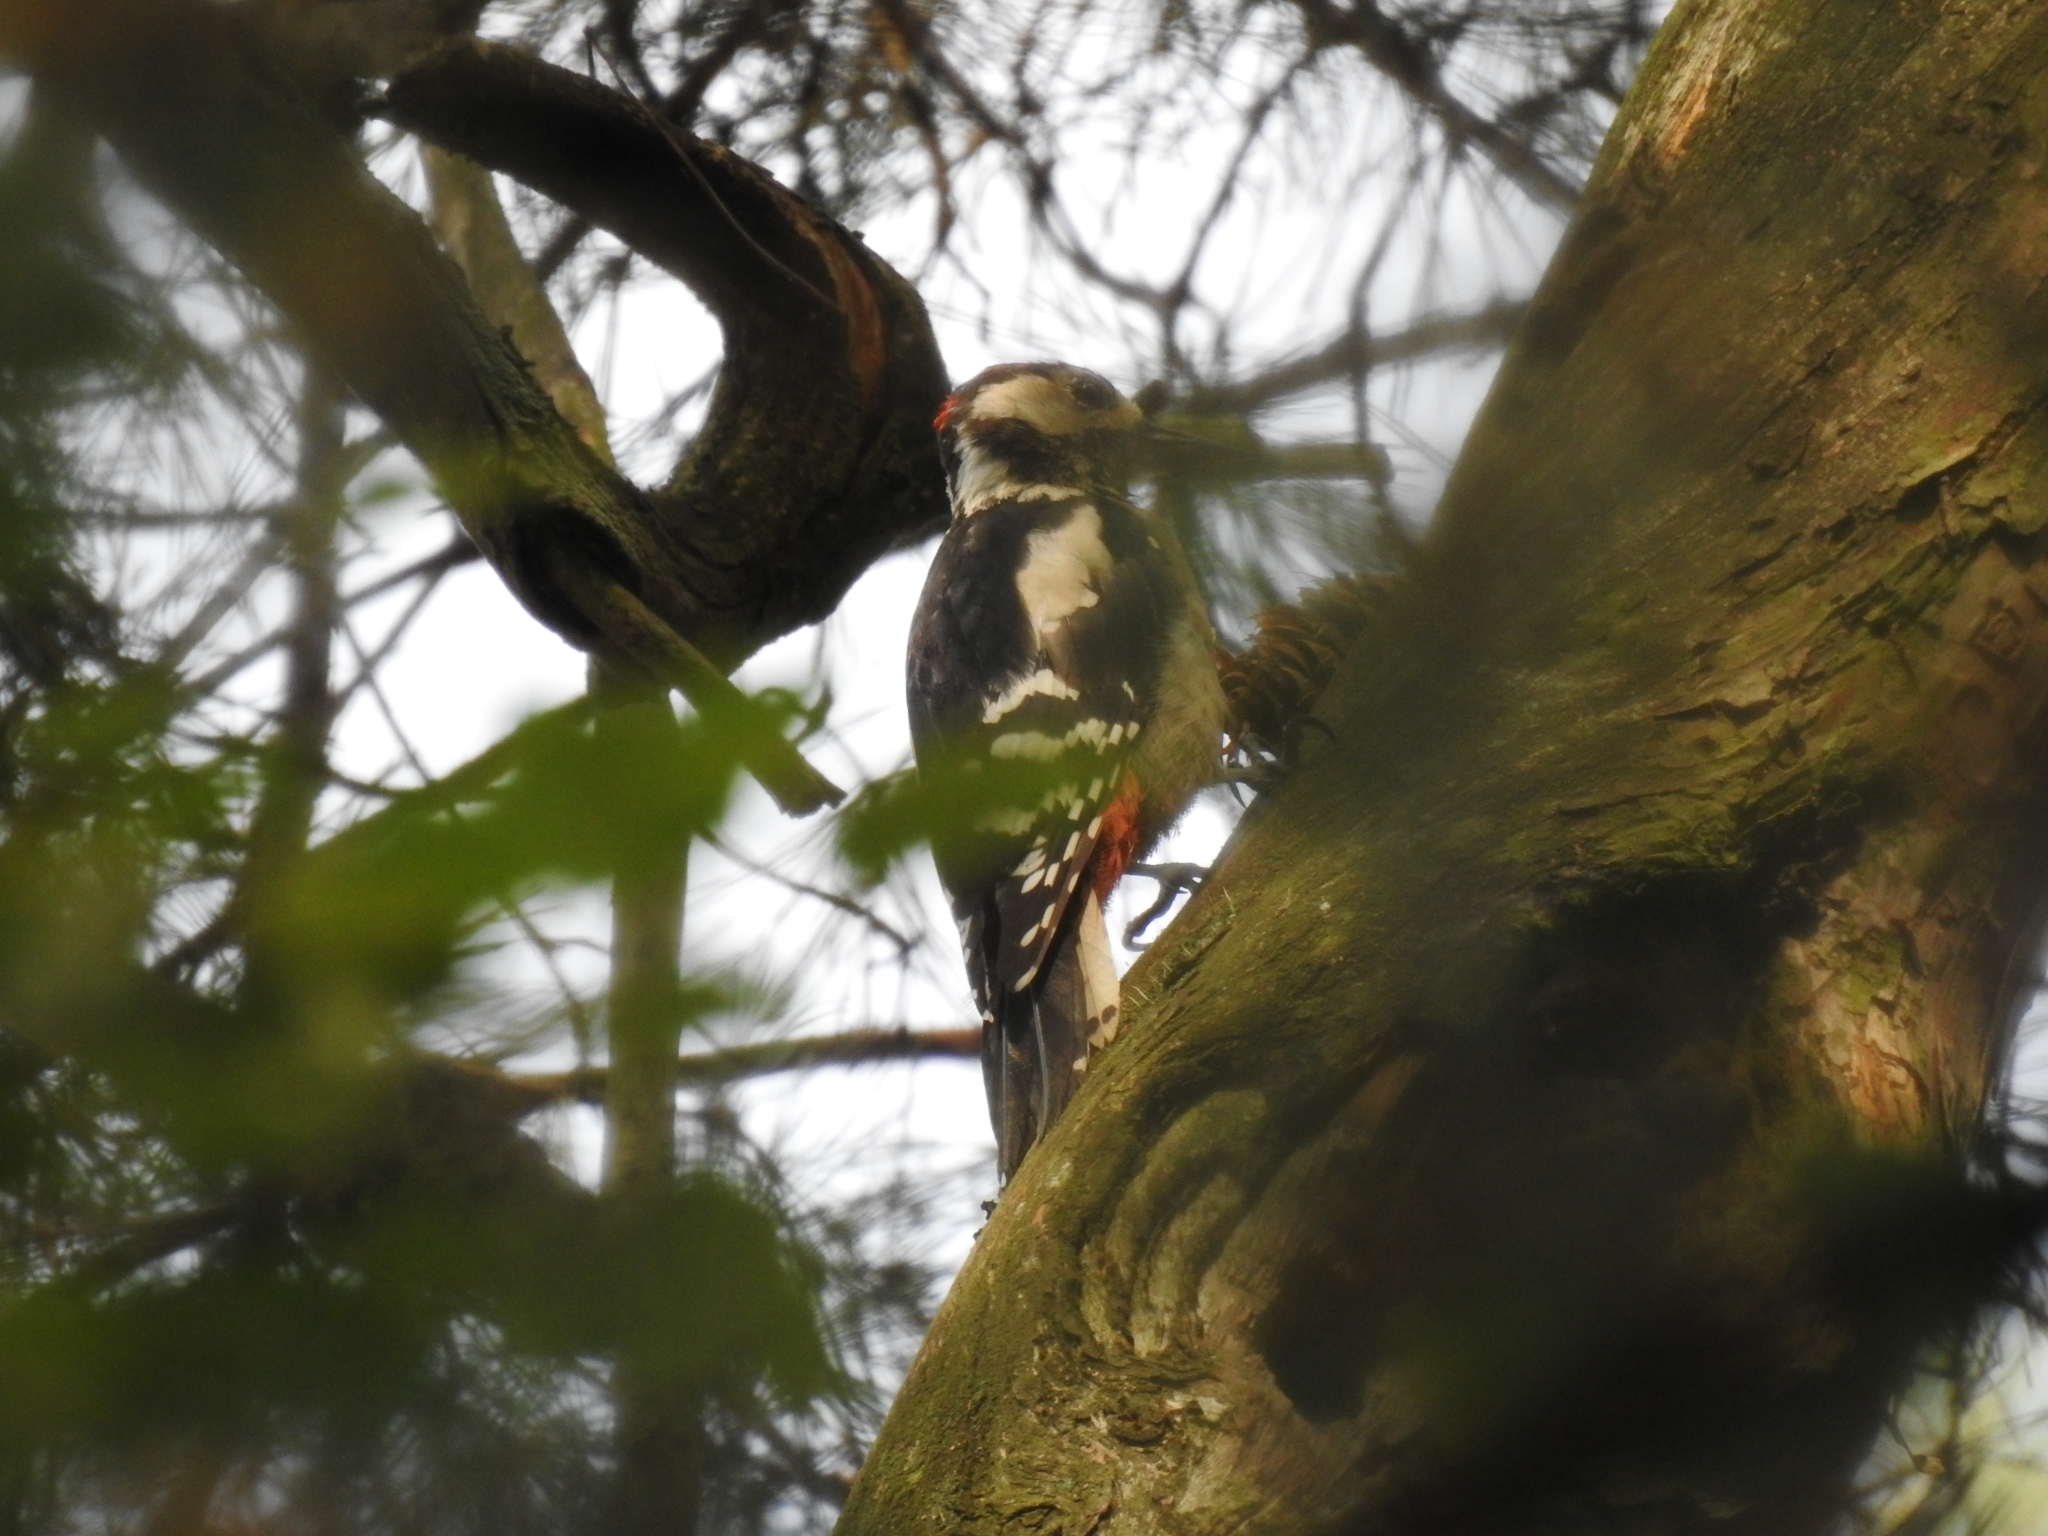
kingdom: Animalia
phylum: Chordata
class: Aves
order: Piciformes
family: Picidae
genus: Dendrocopos
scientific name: Dendrocopos major
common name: Great spotted woodpecker
